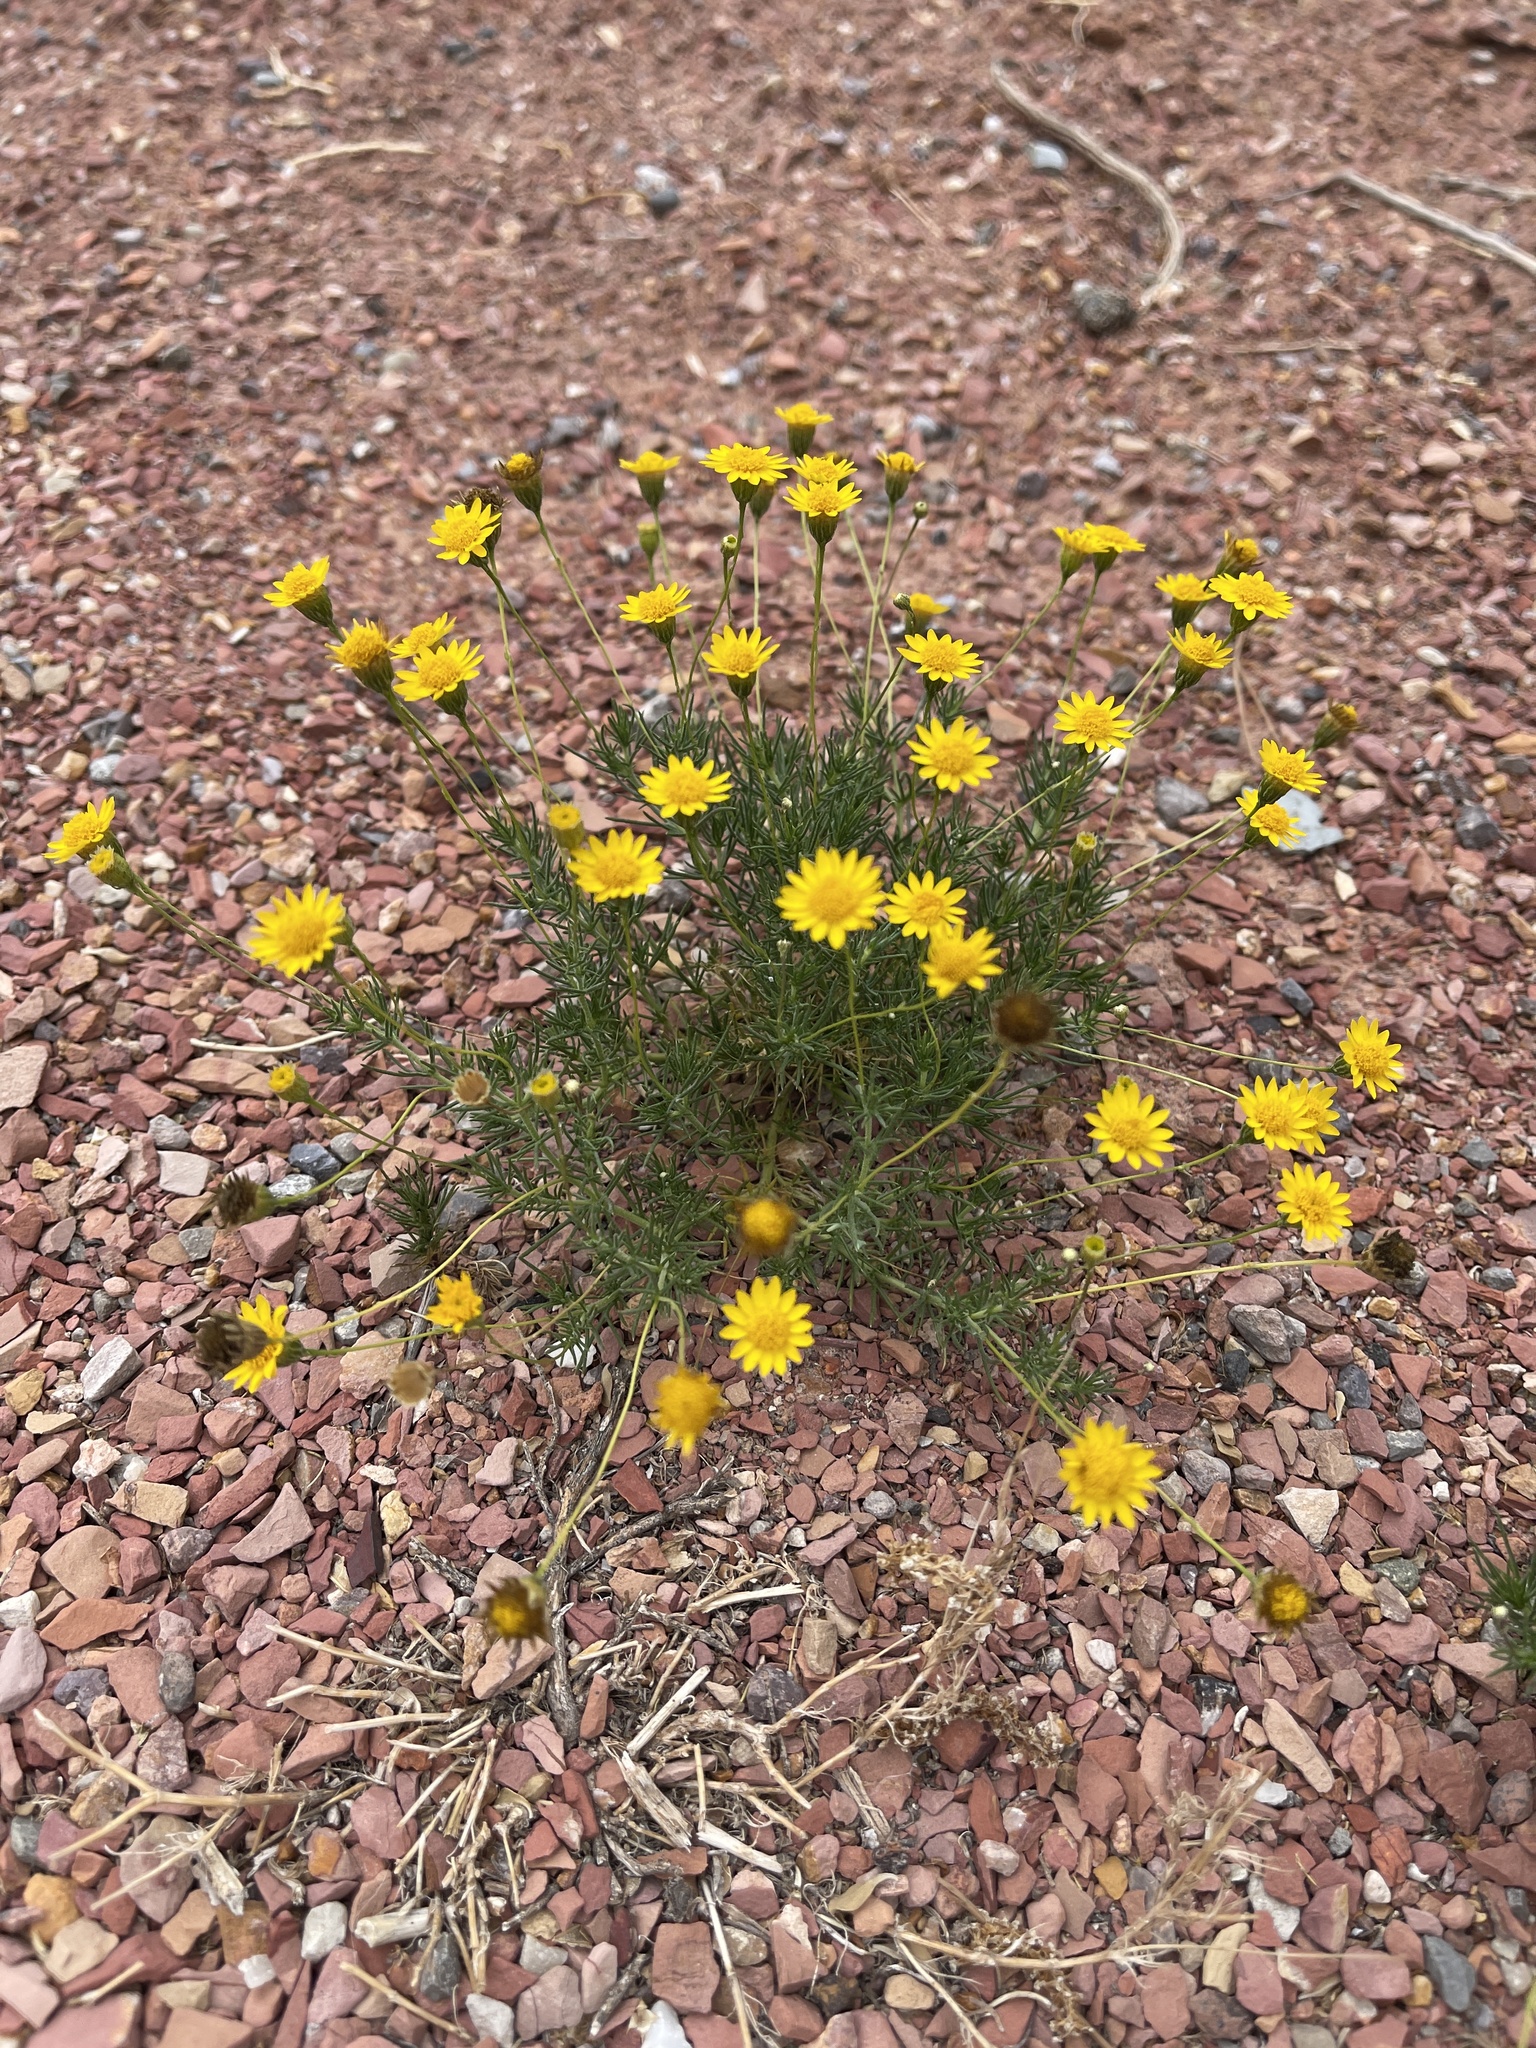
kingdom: Plantae
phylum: Tracheophyta
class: Magnoliopsida
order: Asterales
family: Asteraceae
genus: Thymophylla
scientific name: Thymophylla pentachaeta
